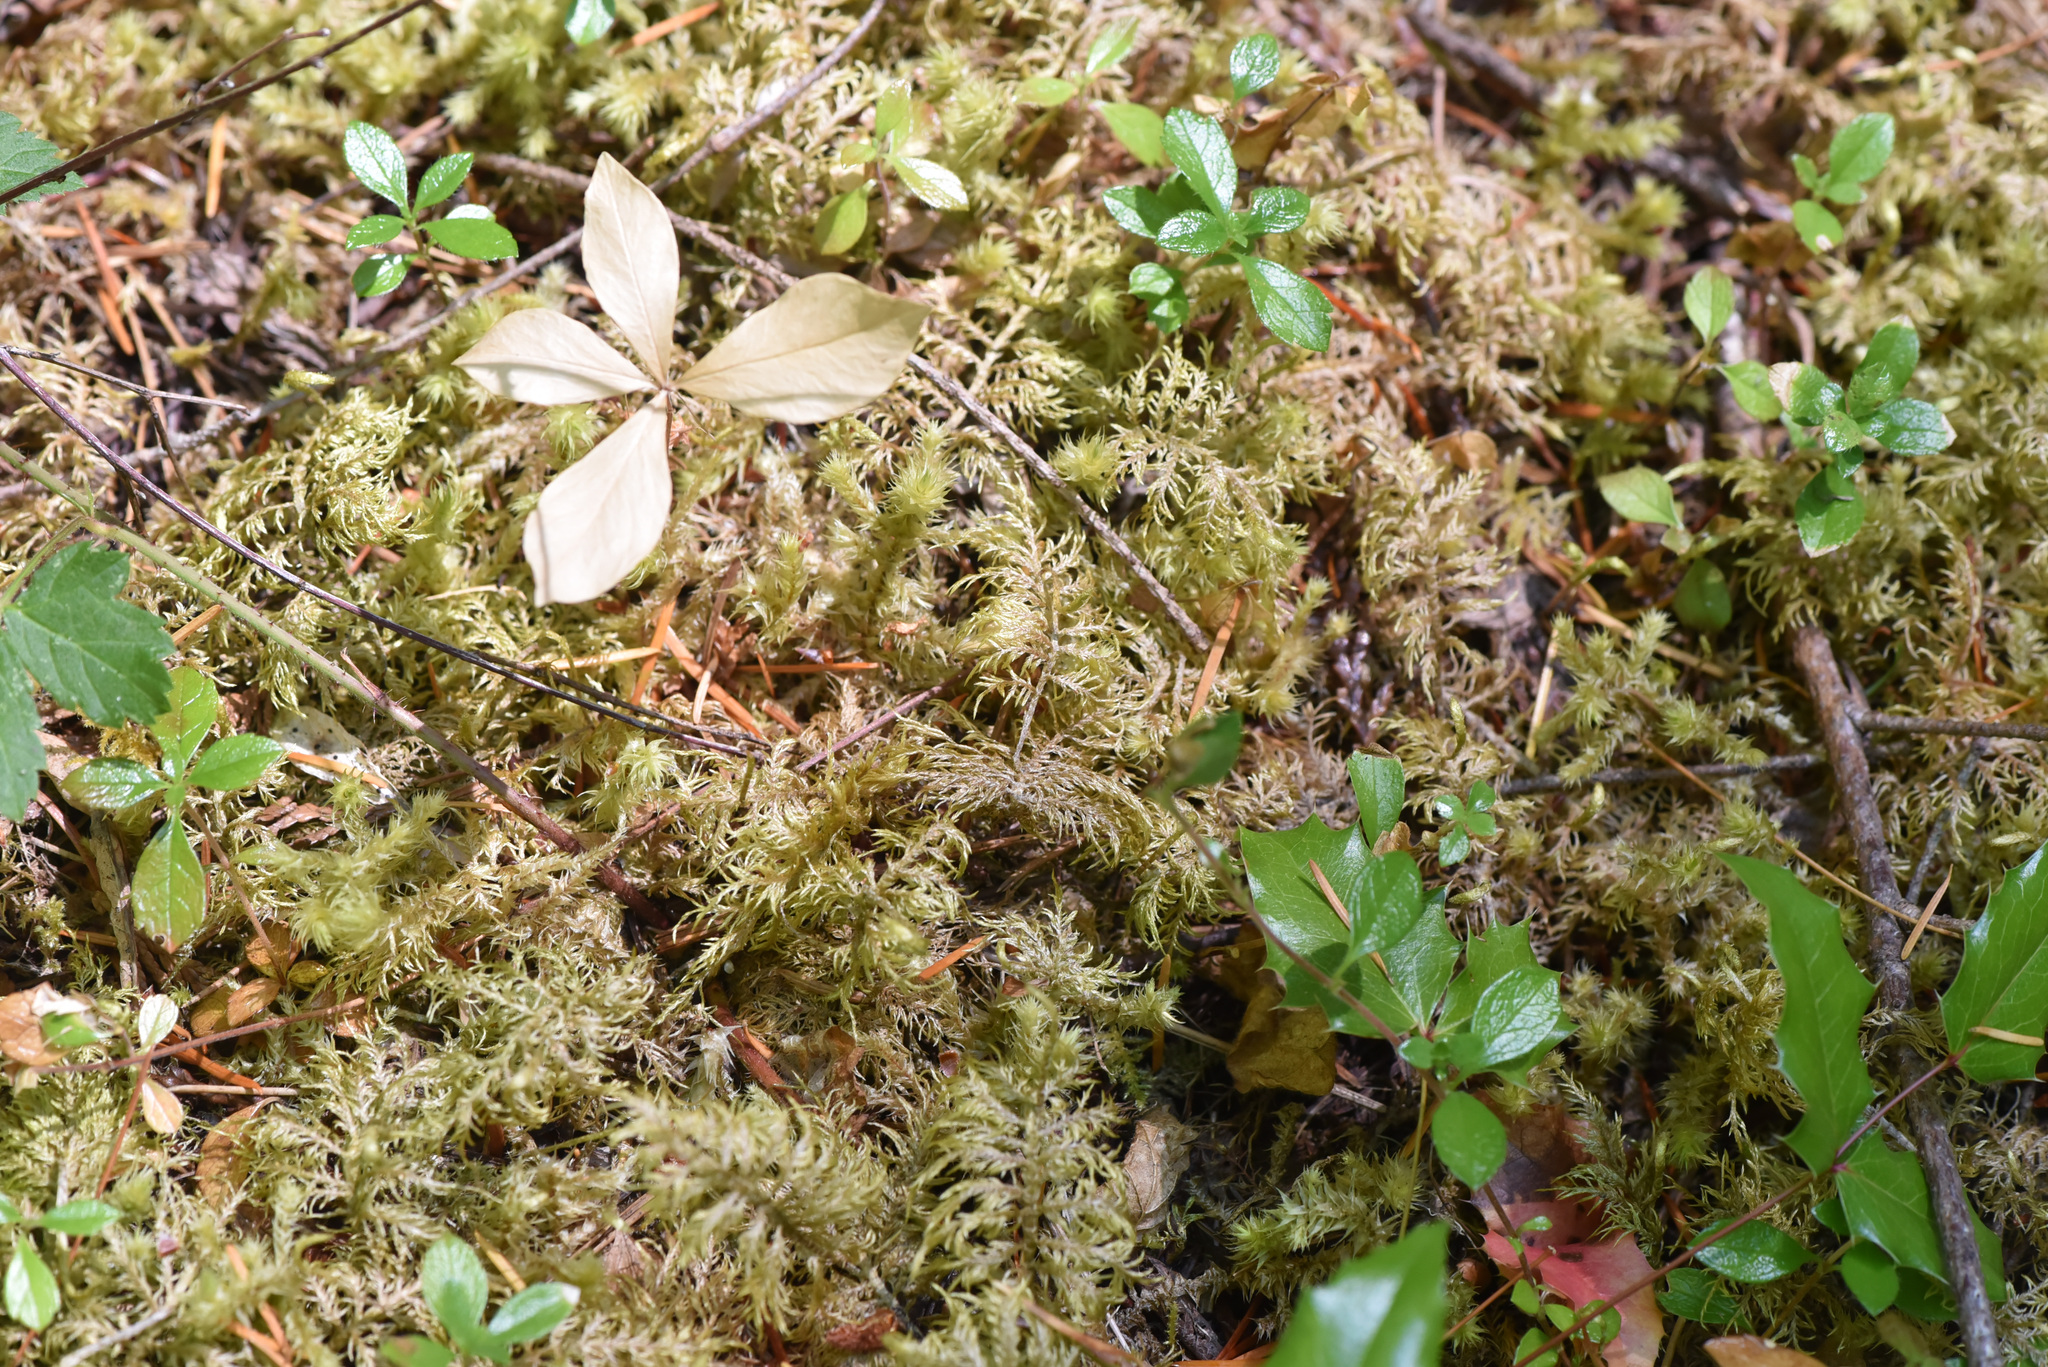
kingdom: Plantae
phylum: Bryophyta
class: Bryopsida
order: Hypnales
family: Hylocomiaceae
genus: Hylocomium
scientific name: Hylocomium splendens
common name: Stairstep moss
